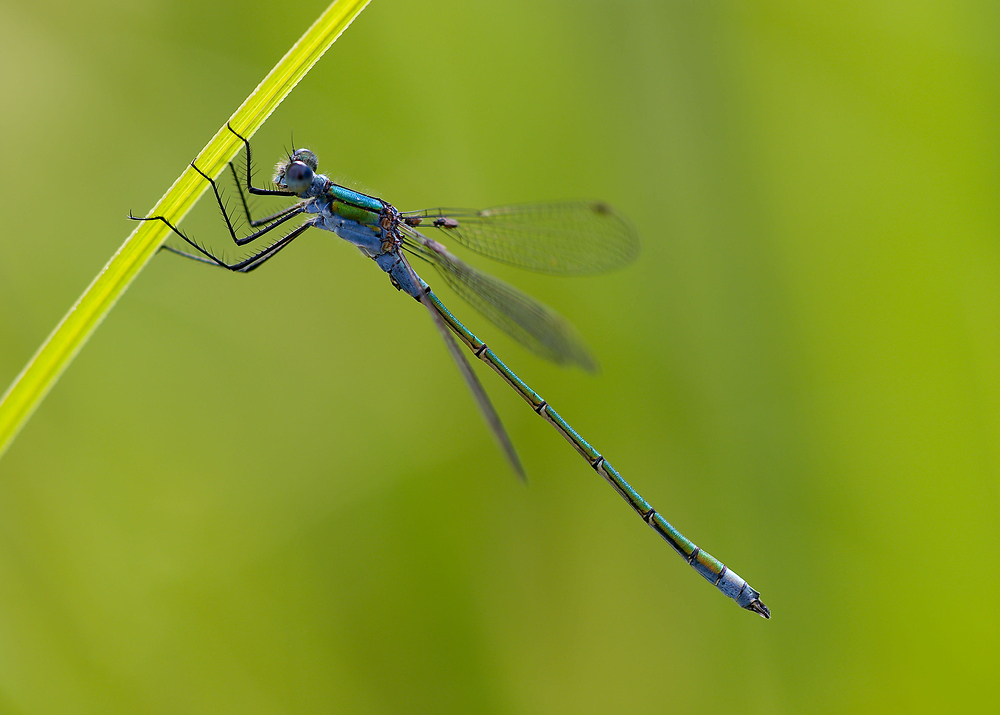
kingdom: Animalia
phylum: Arthropoda
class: Insecta
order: Odonata
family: Lestidae
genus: Lestes
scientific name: Lestes sponsa
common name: Common spreadwing
